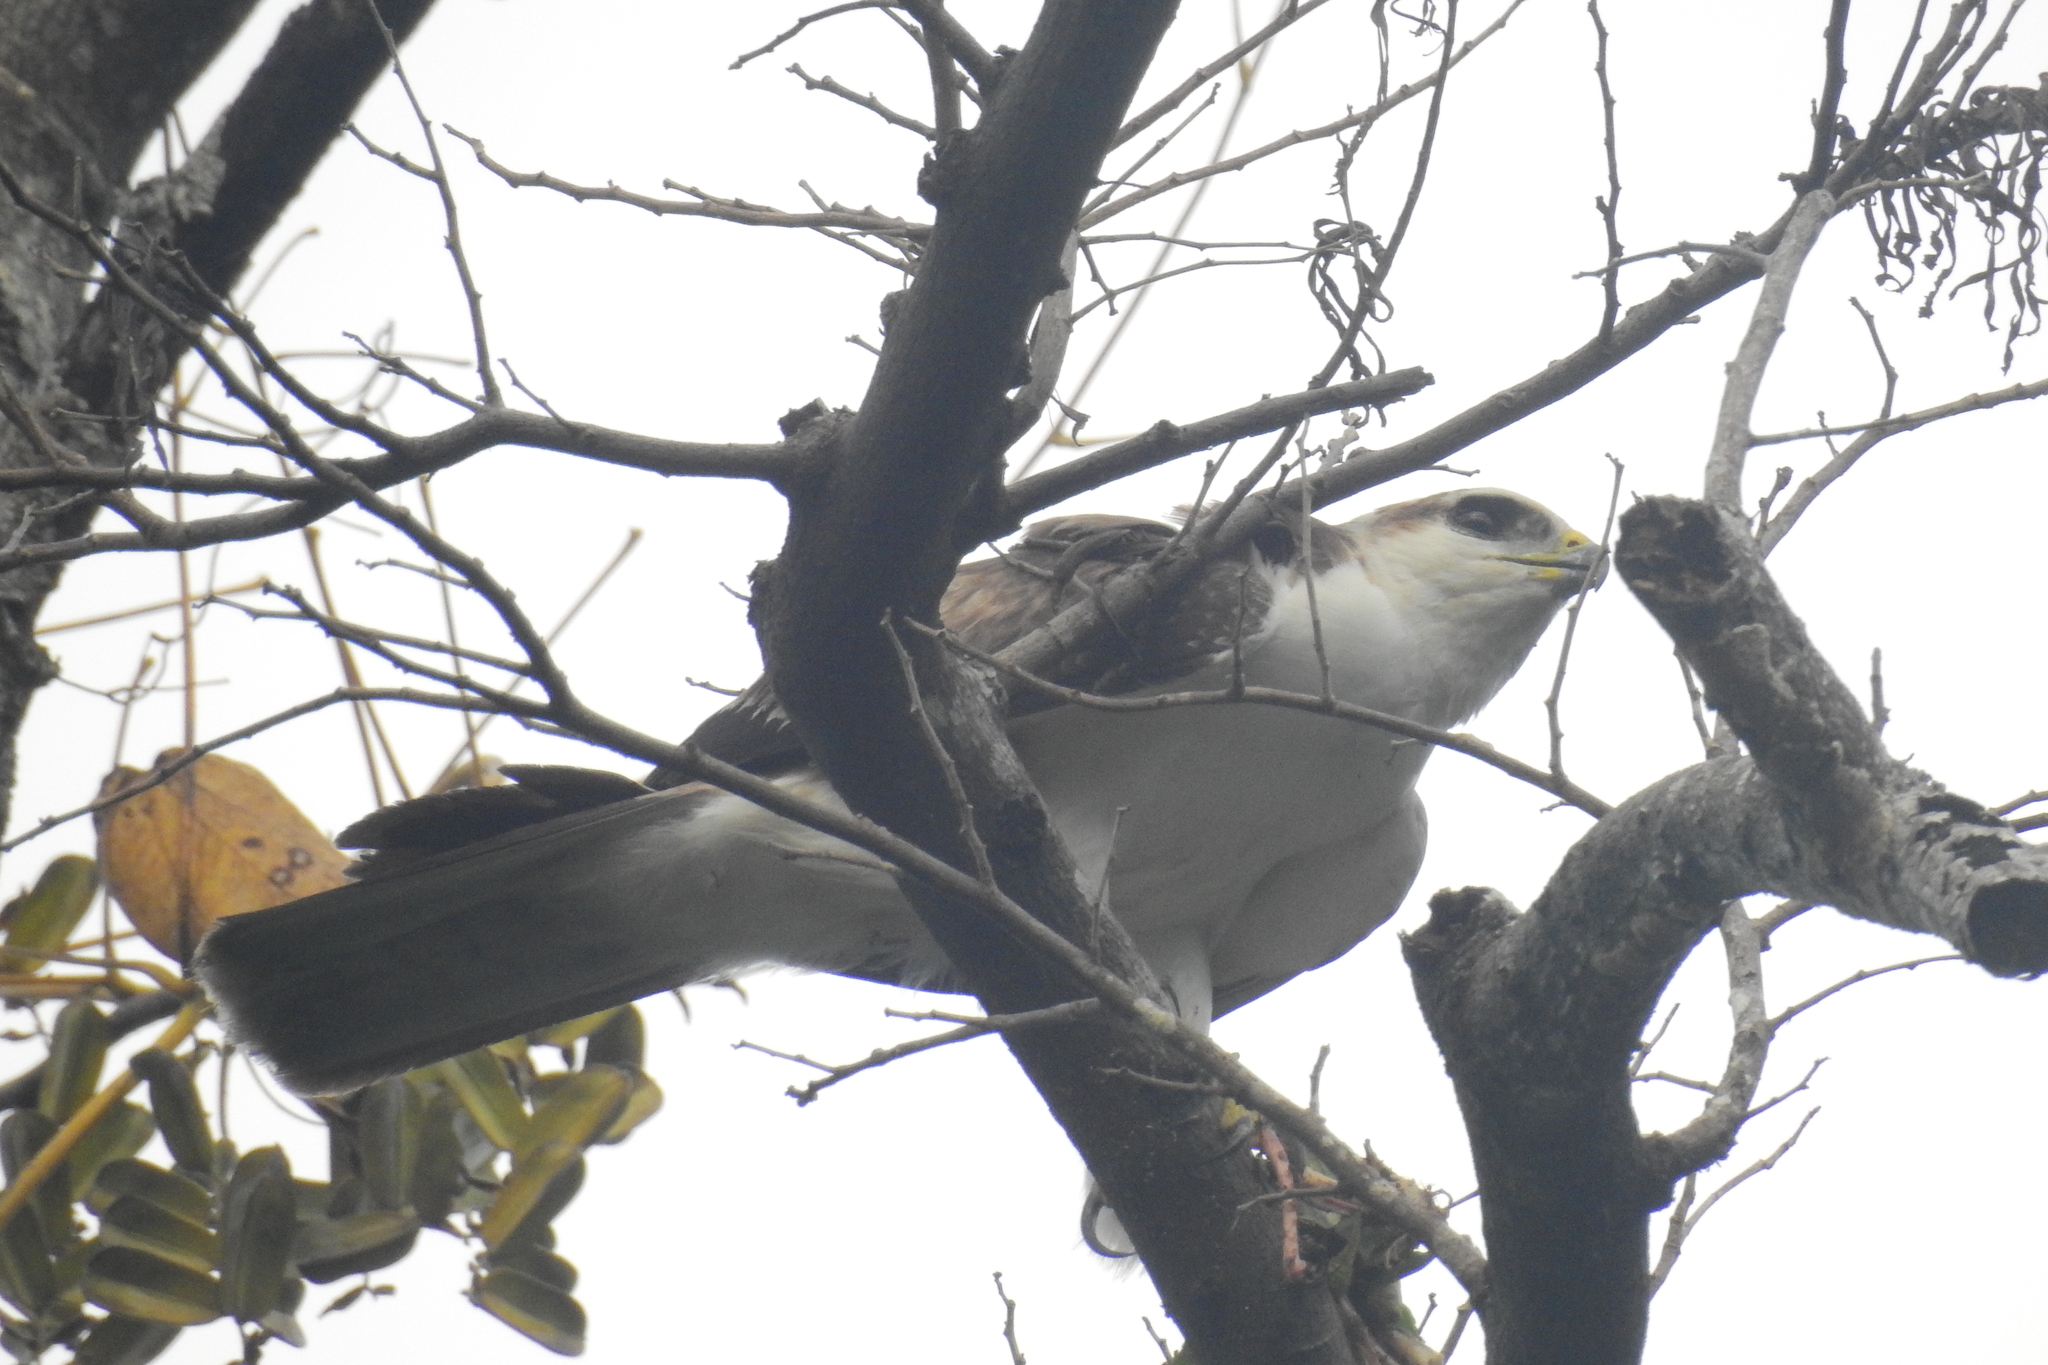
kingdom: Animalia
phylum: Chordata
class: Aves
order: Accipitriformes
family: Accipitridae
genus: Lophotriorchis
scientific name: Lophotriorchis kienerii
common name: Rufous-bellied eagle
